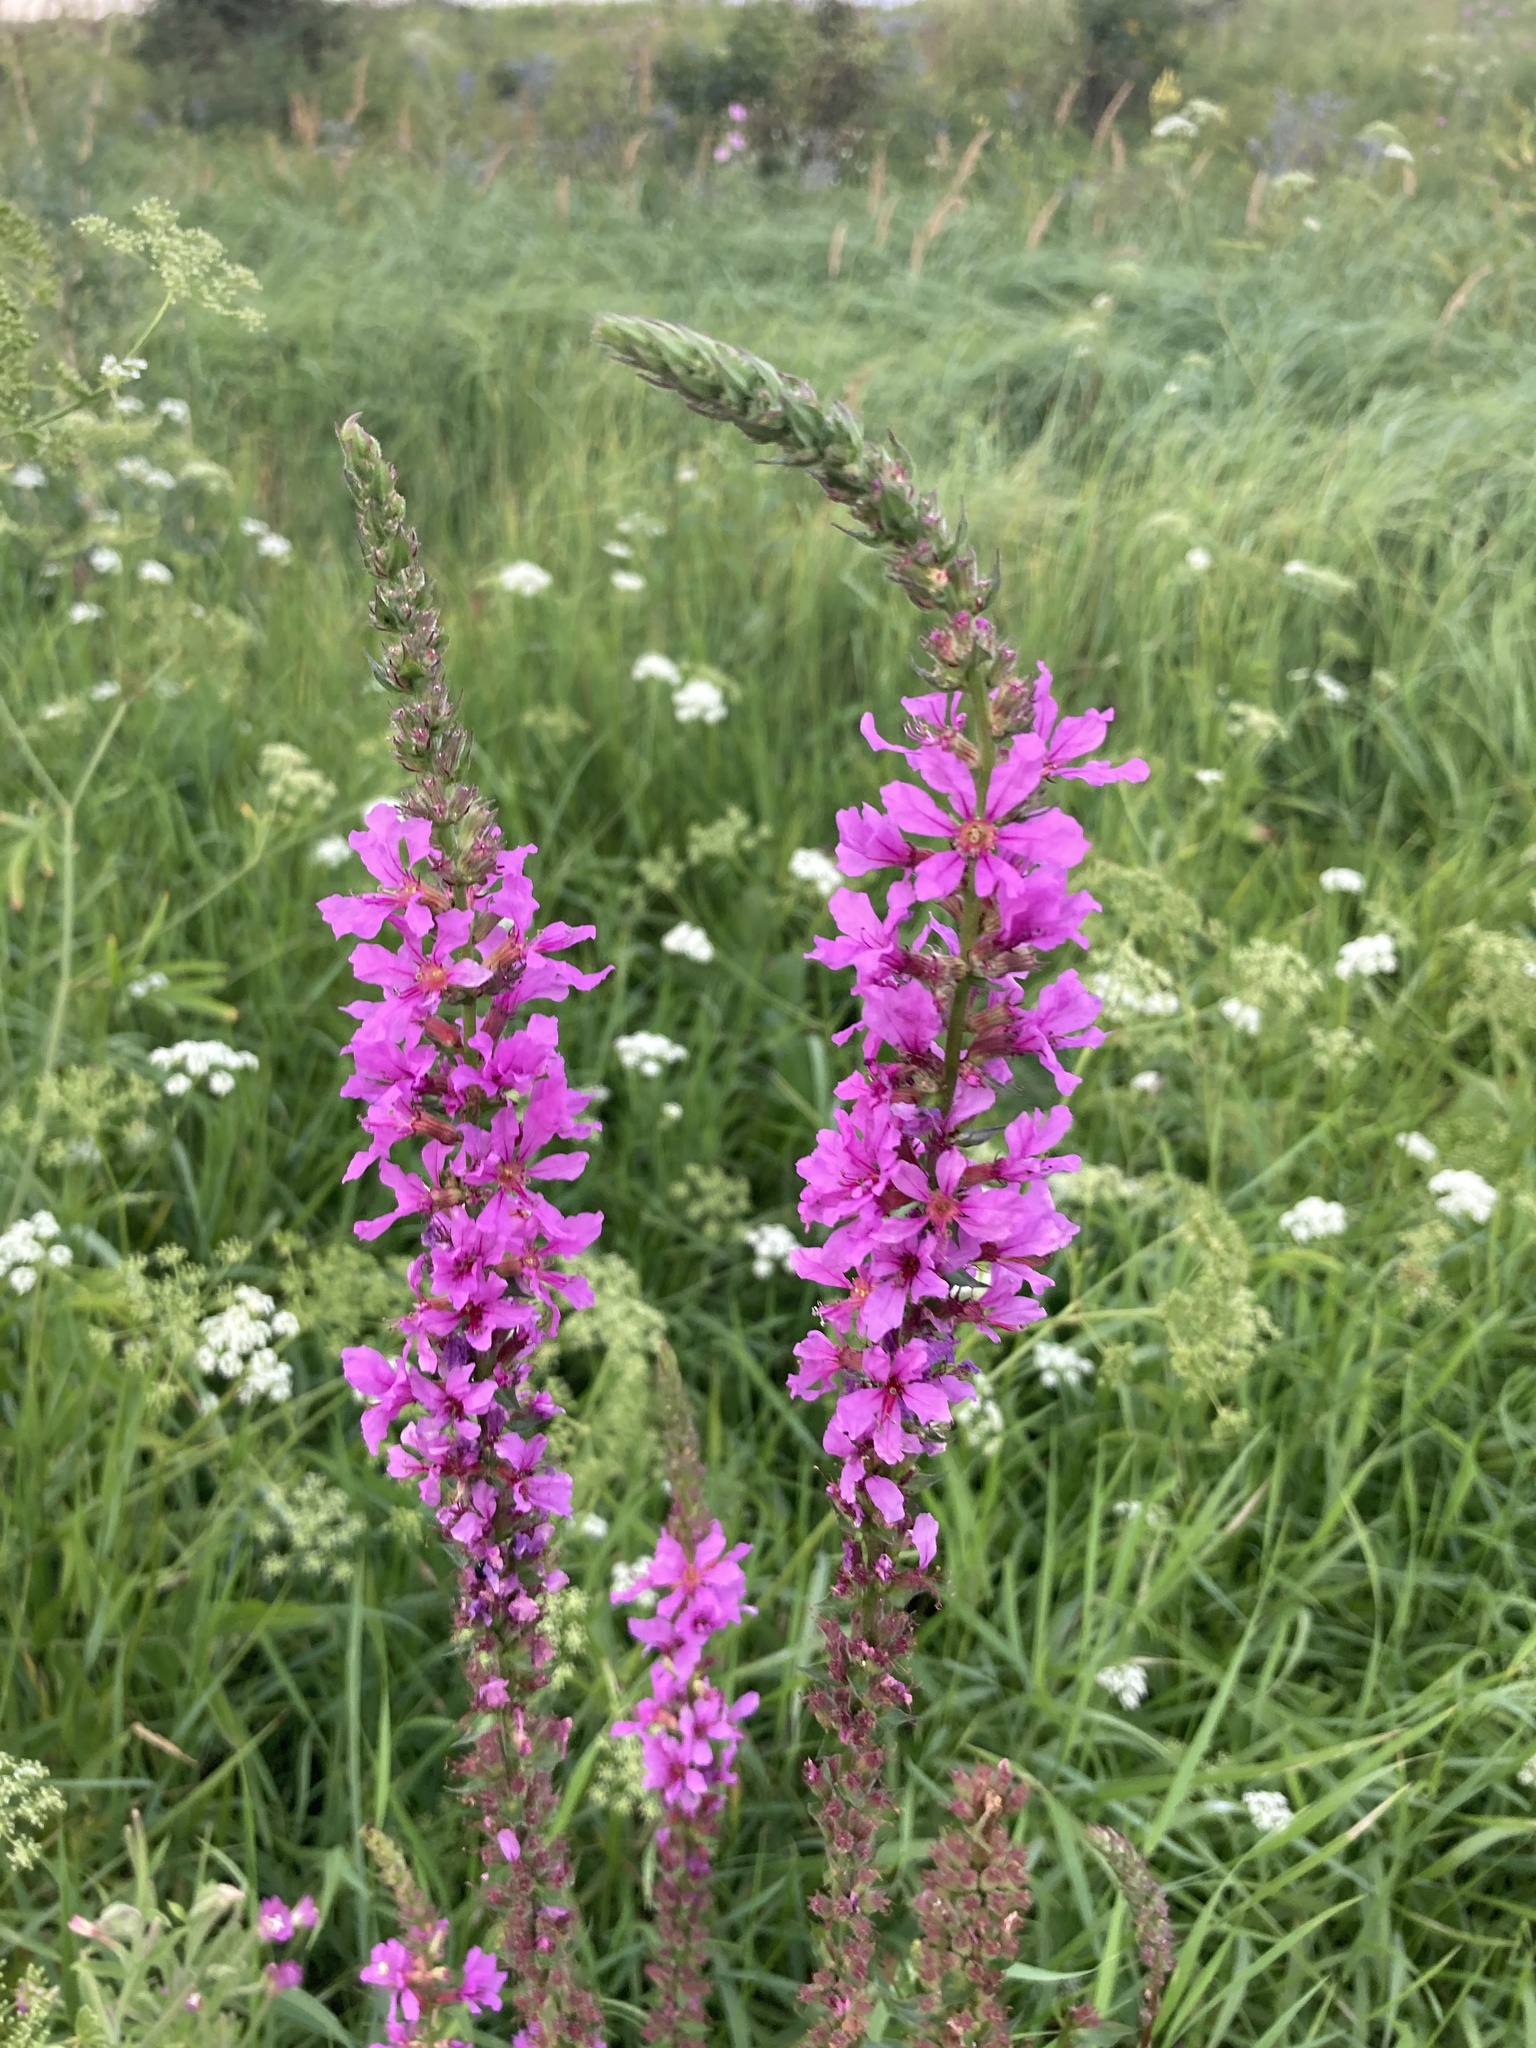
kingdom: Plantae
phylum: Tracheophyta
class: Magnoliopsida
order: Myrtales
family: Lythraceae
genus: Lythrum
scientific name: Lythrum salicaria
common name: Purple loosestrife
